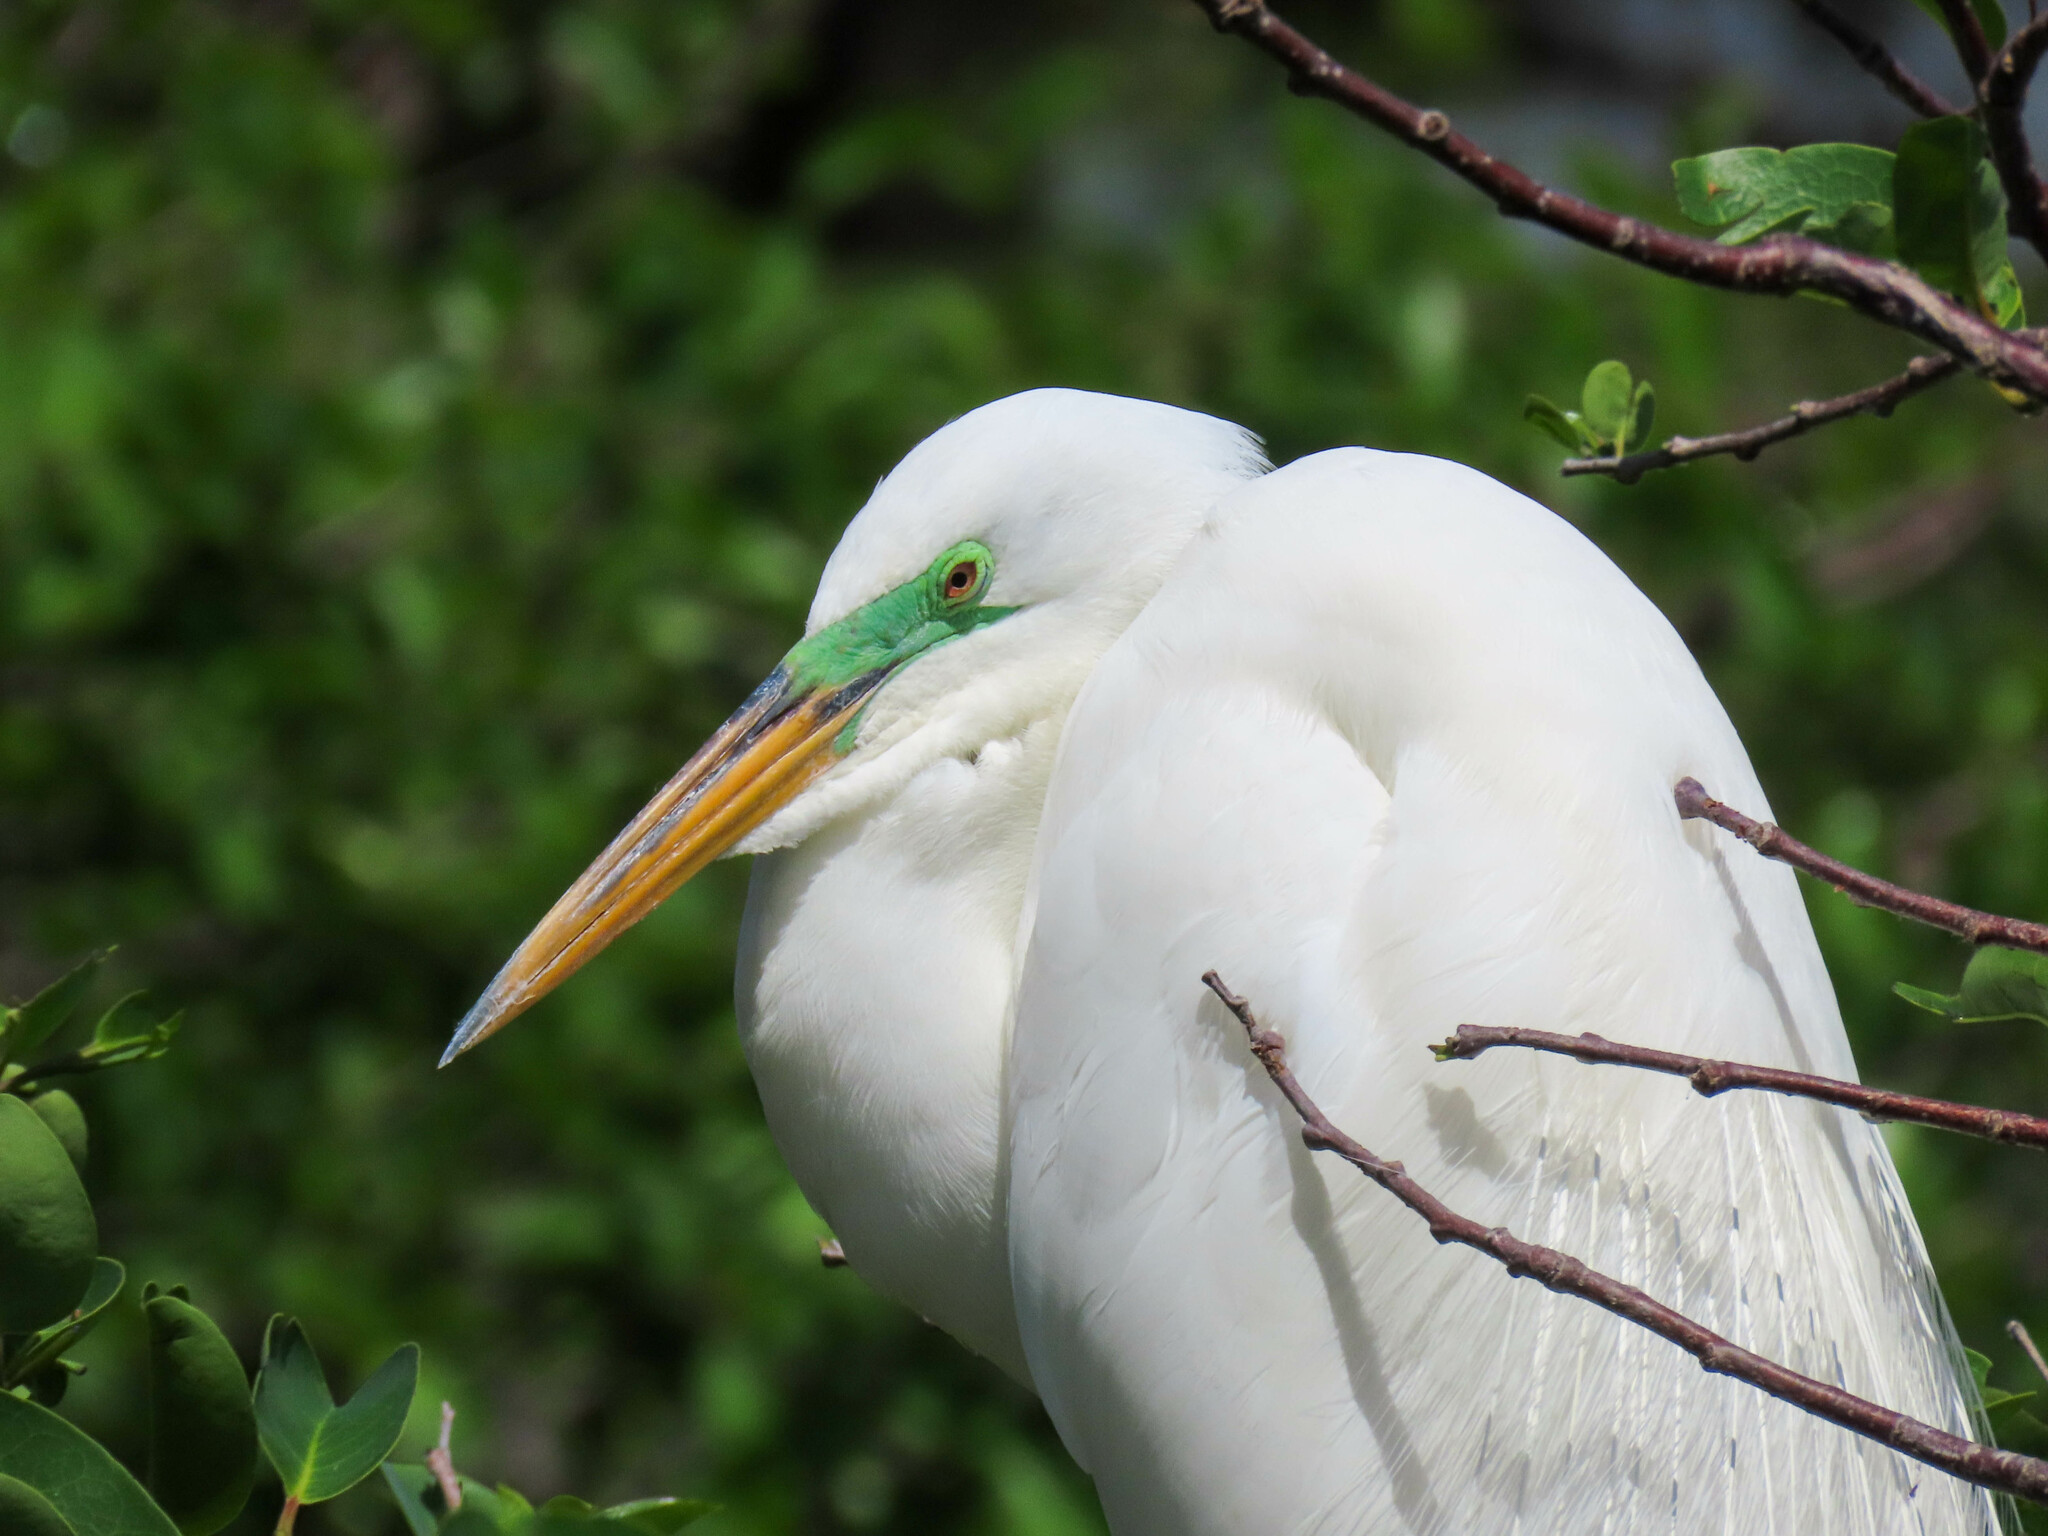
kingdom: Animalia
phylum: Chordata
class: Aves
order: Pelecaniformes
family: Ardeidae
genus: Ardea
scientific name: Ardea alba
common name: Great egret
